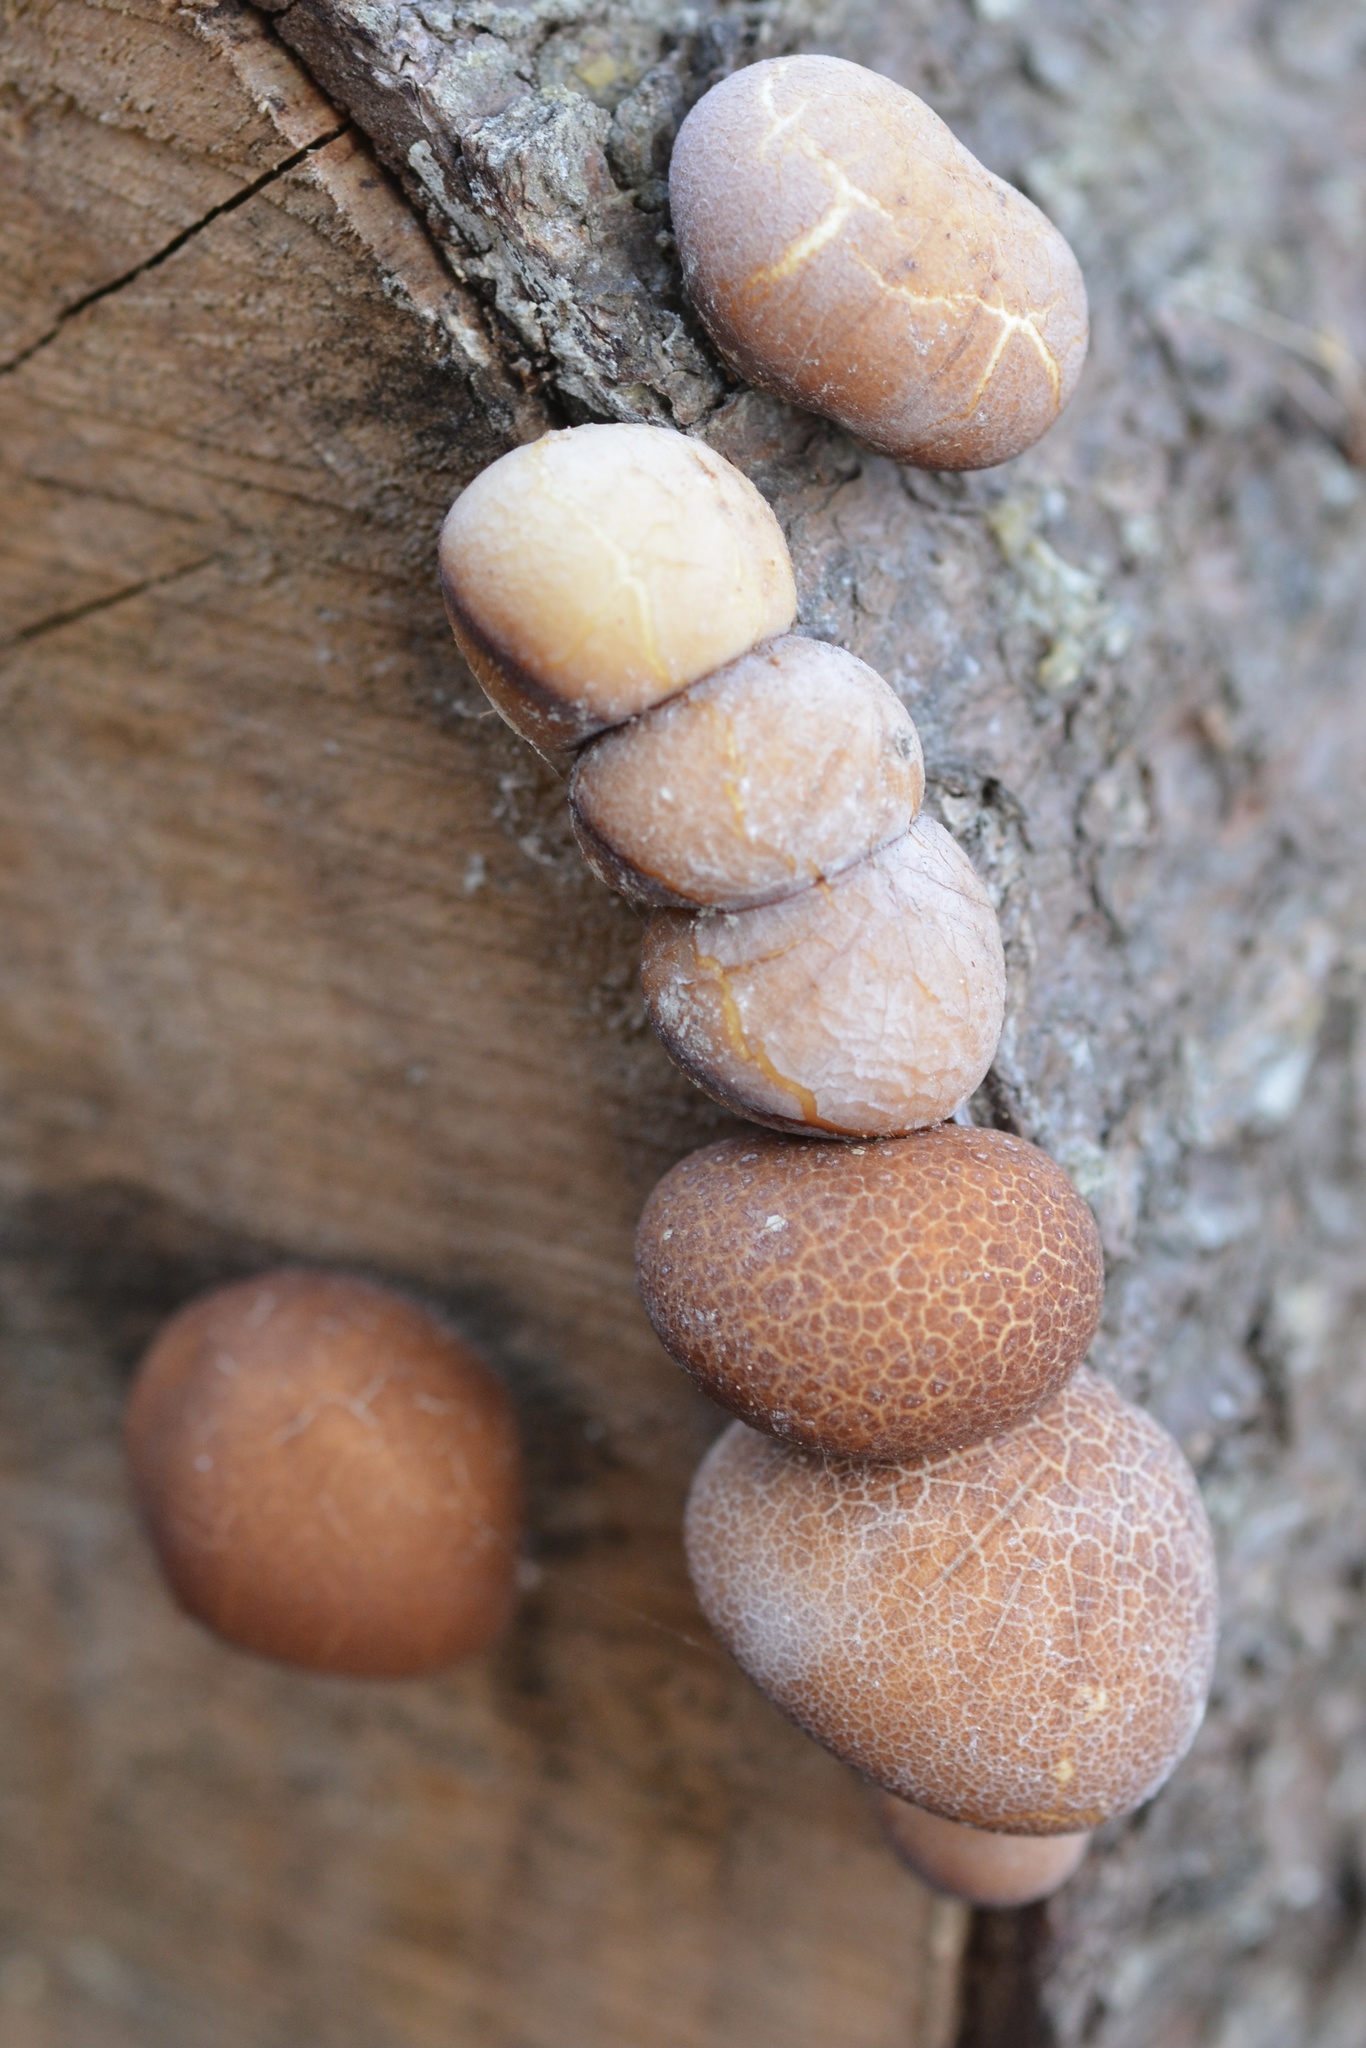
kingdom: Fungi
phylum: Basidiomycota
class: Agaricomycetes
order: Polyporales
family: Polyporaceae
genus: Cryptoporus
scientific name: Cryptoporus volvatus
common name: Veiled polypore
